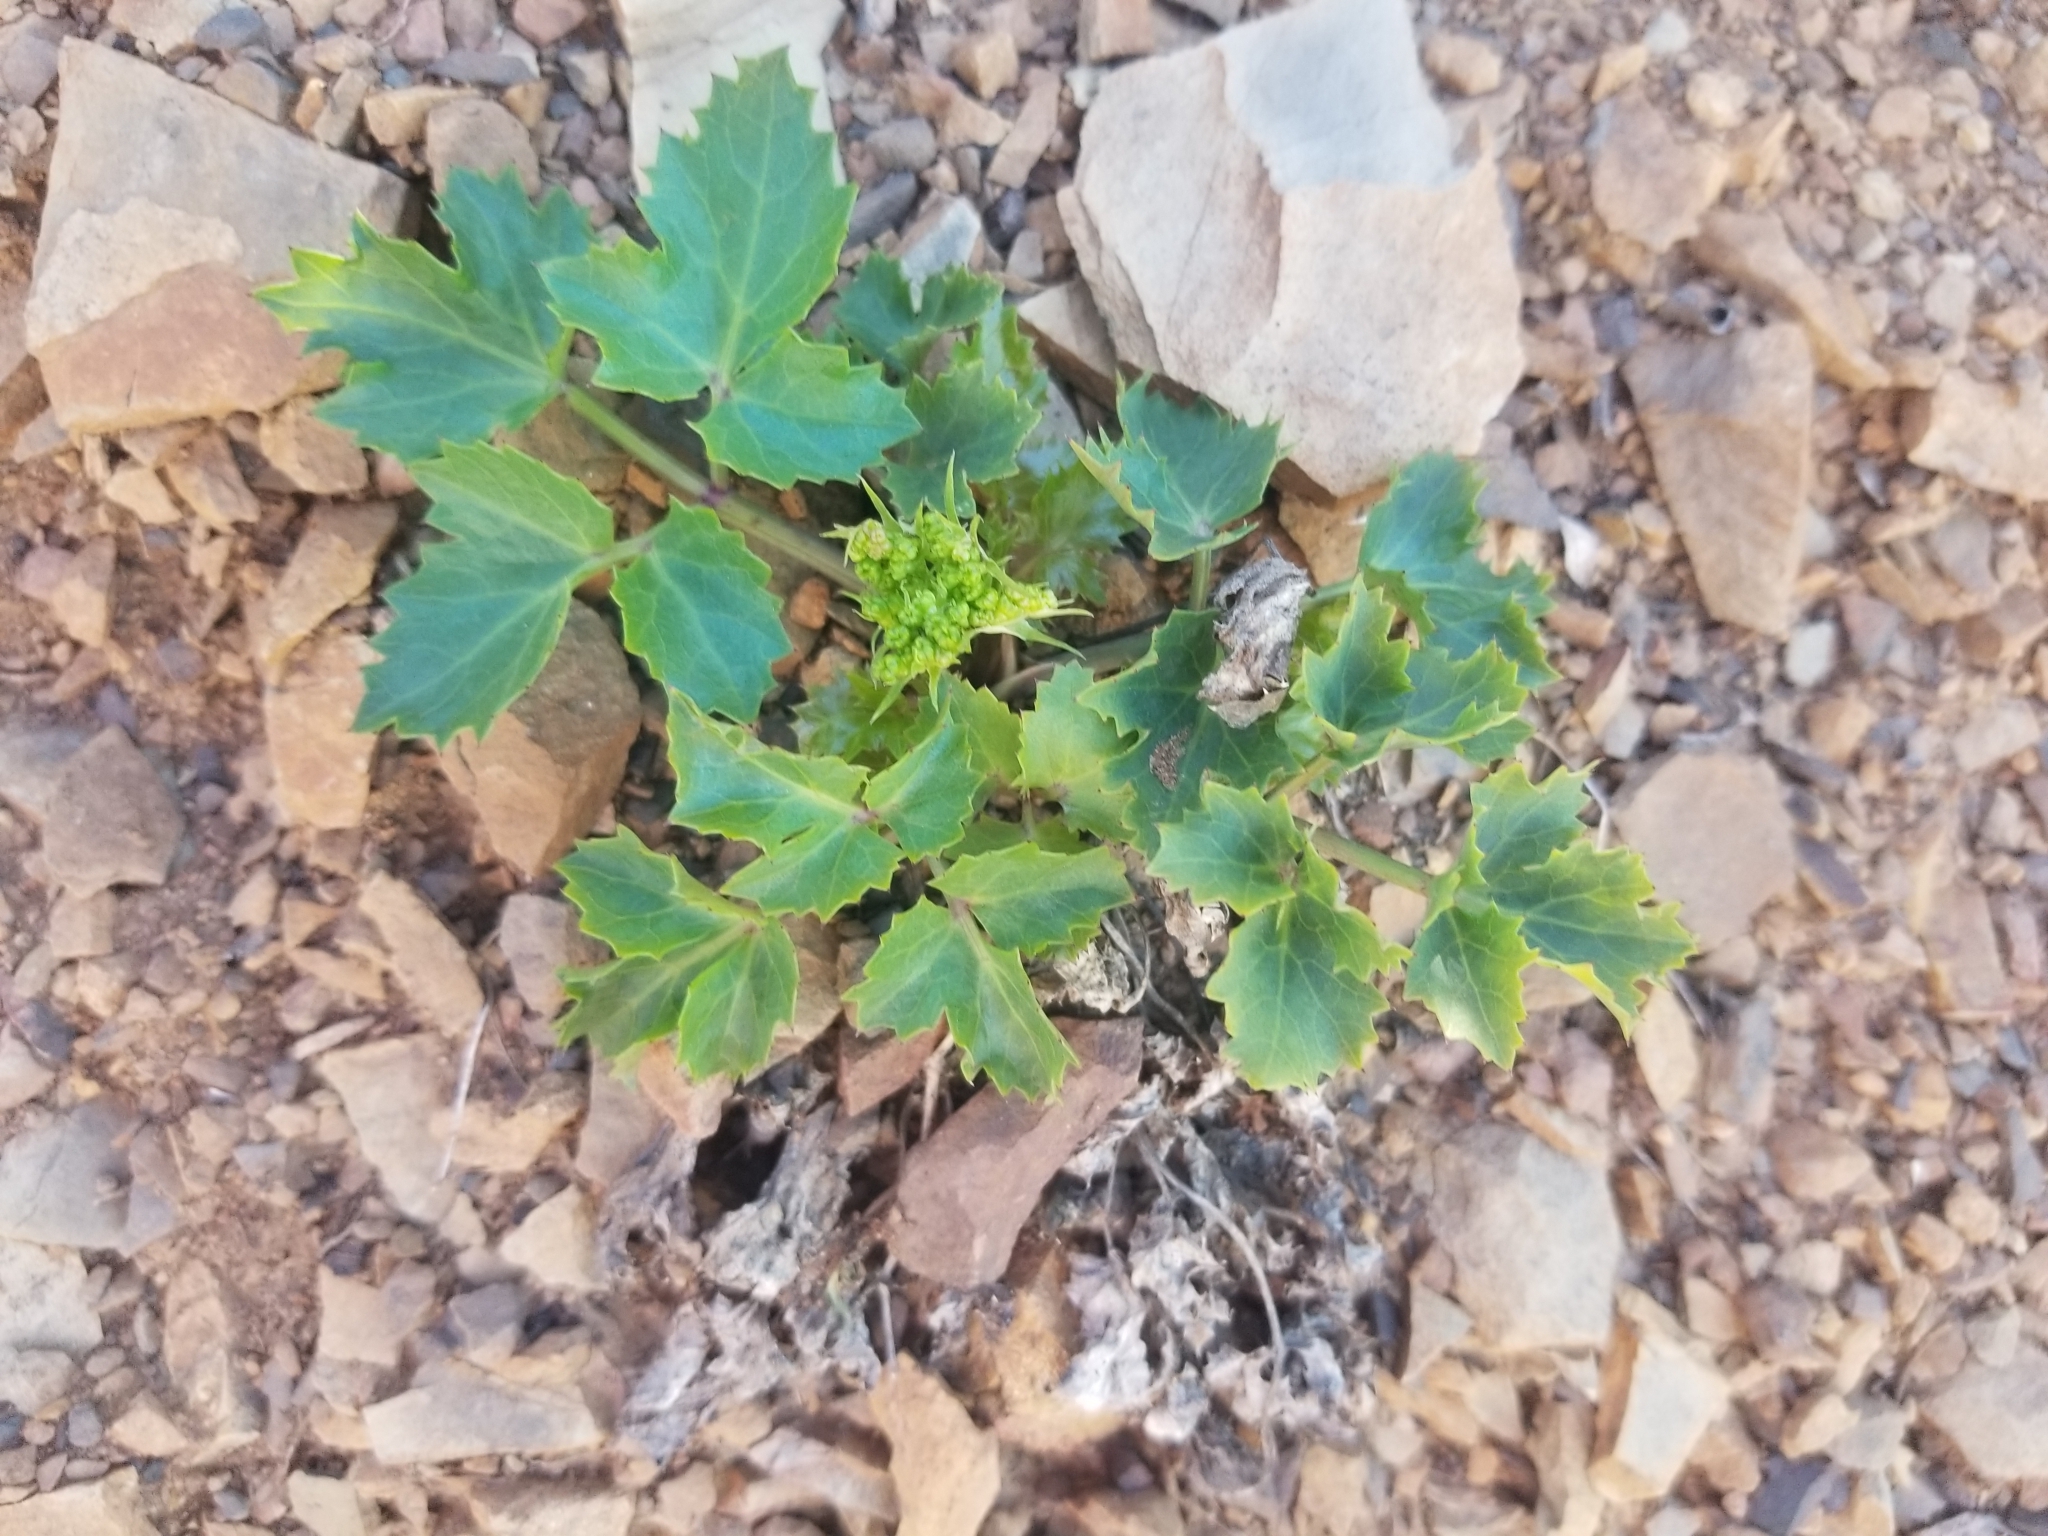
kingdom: Plantae
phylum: Tracheophyta
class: Magnoliopsida
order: Apiales
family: Apiaceae
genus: Lomatium
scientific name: Lomatium lucidum
